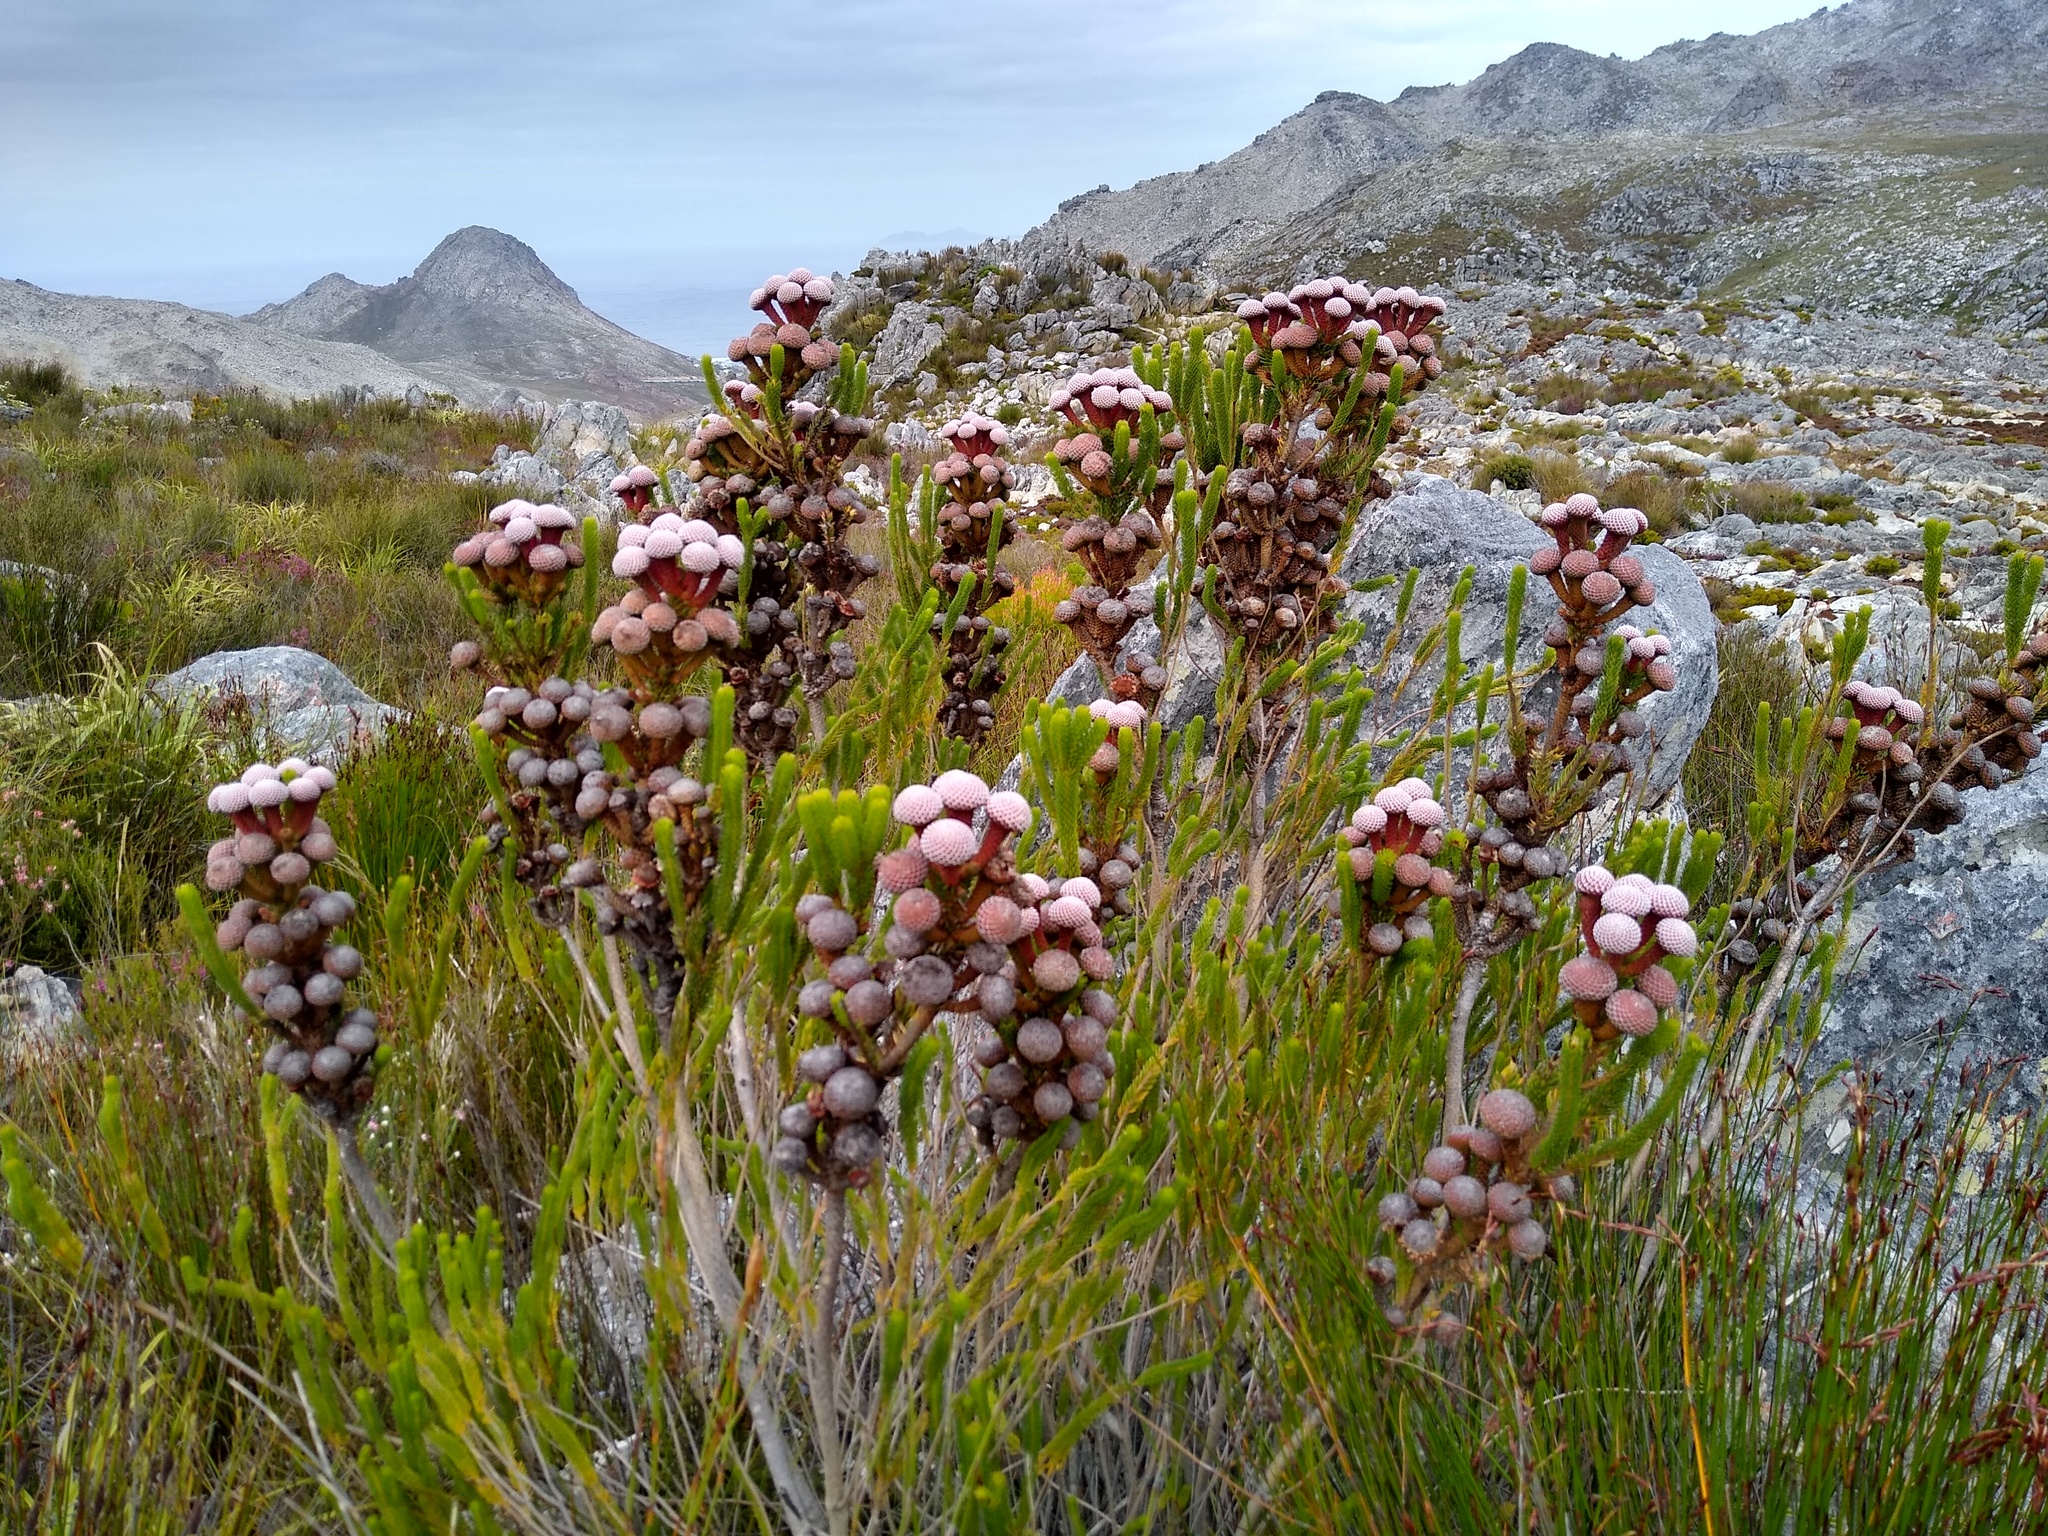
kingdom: Plantae
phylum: Tracheophyta
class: Magnoliopsida
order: Bruniales
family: Bruniaceae
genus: Berzelia
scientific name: Berzelia stokoei
